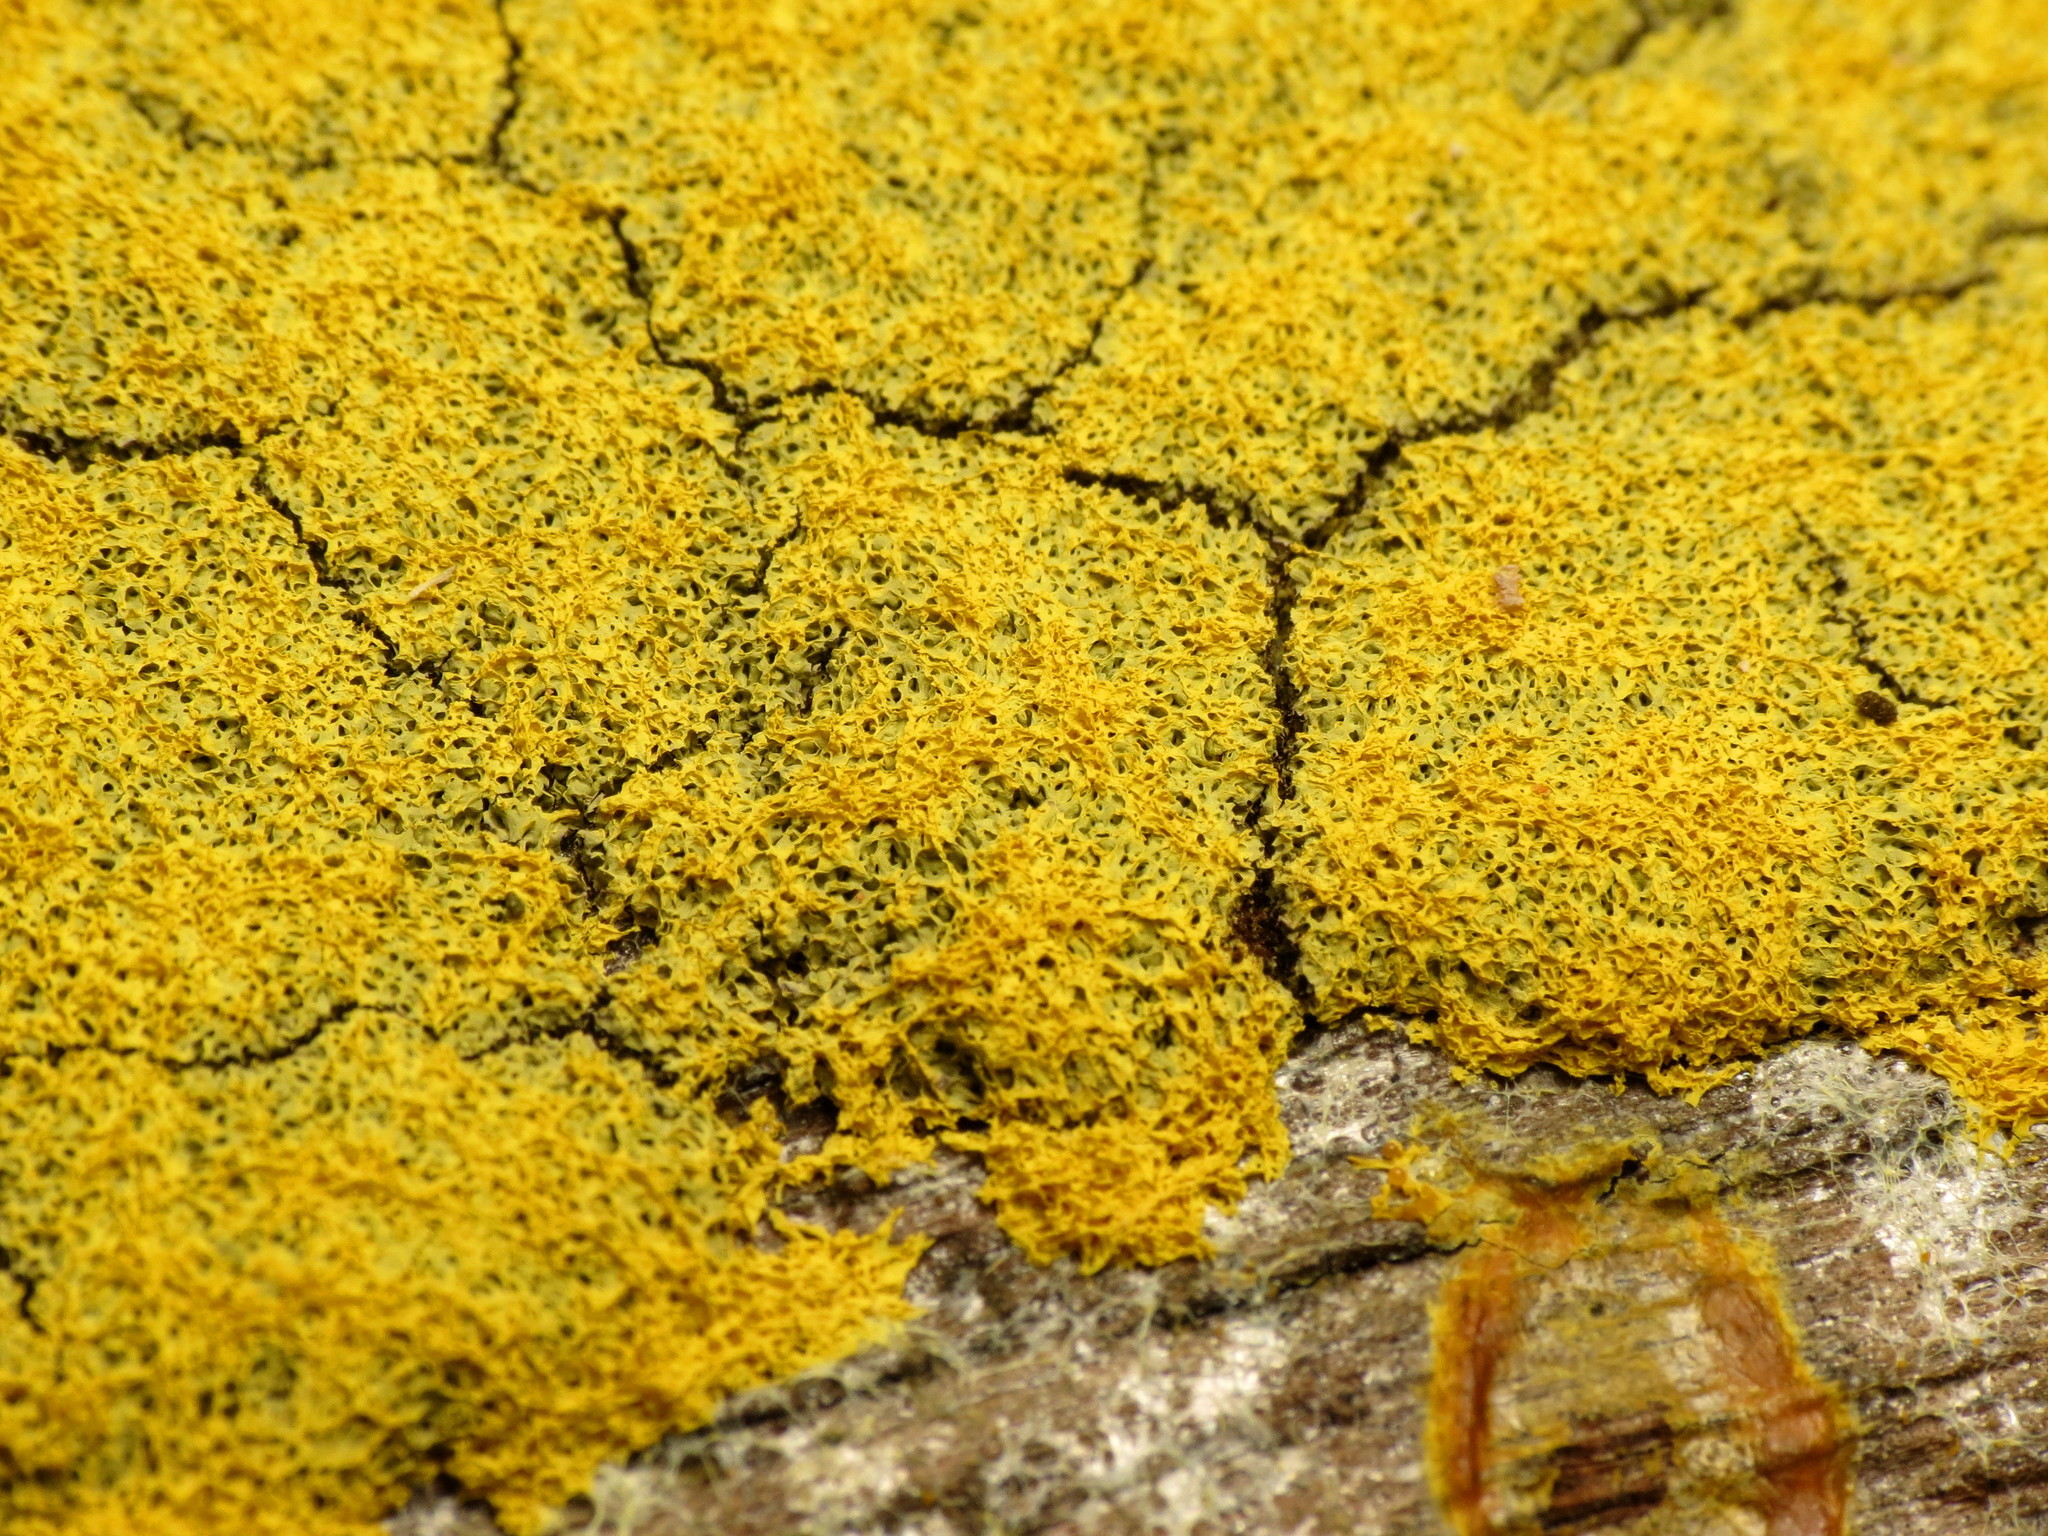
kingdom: Protozoa
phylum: Mycetozoa
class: Myxomycetes
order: Physarales
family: Physaraceae
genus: Fuligo
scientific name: Fuligo septica
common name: Dog vomit slime mold
